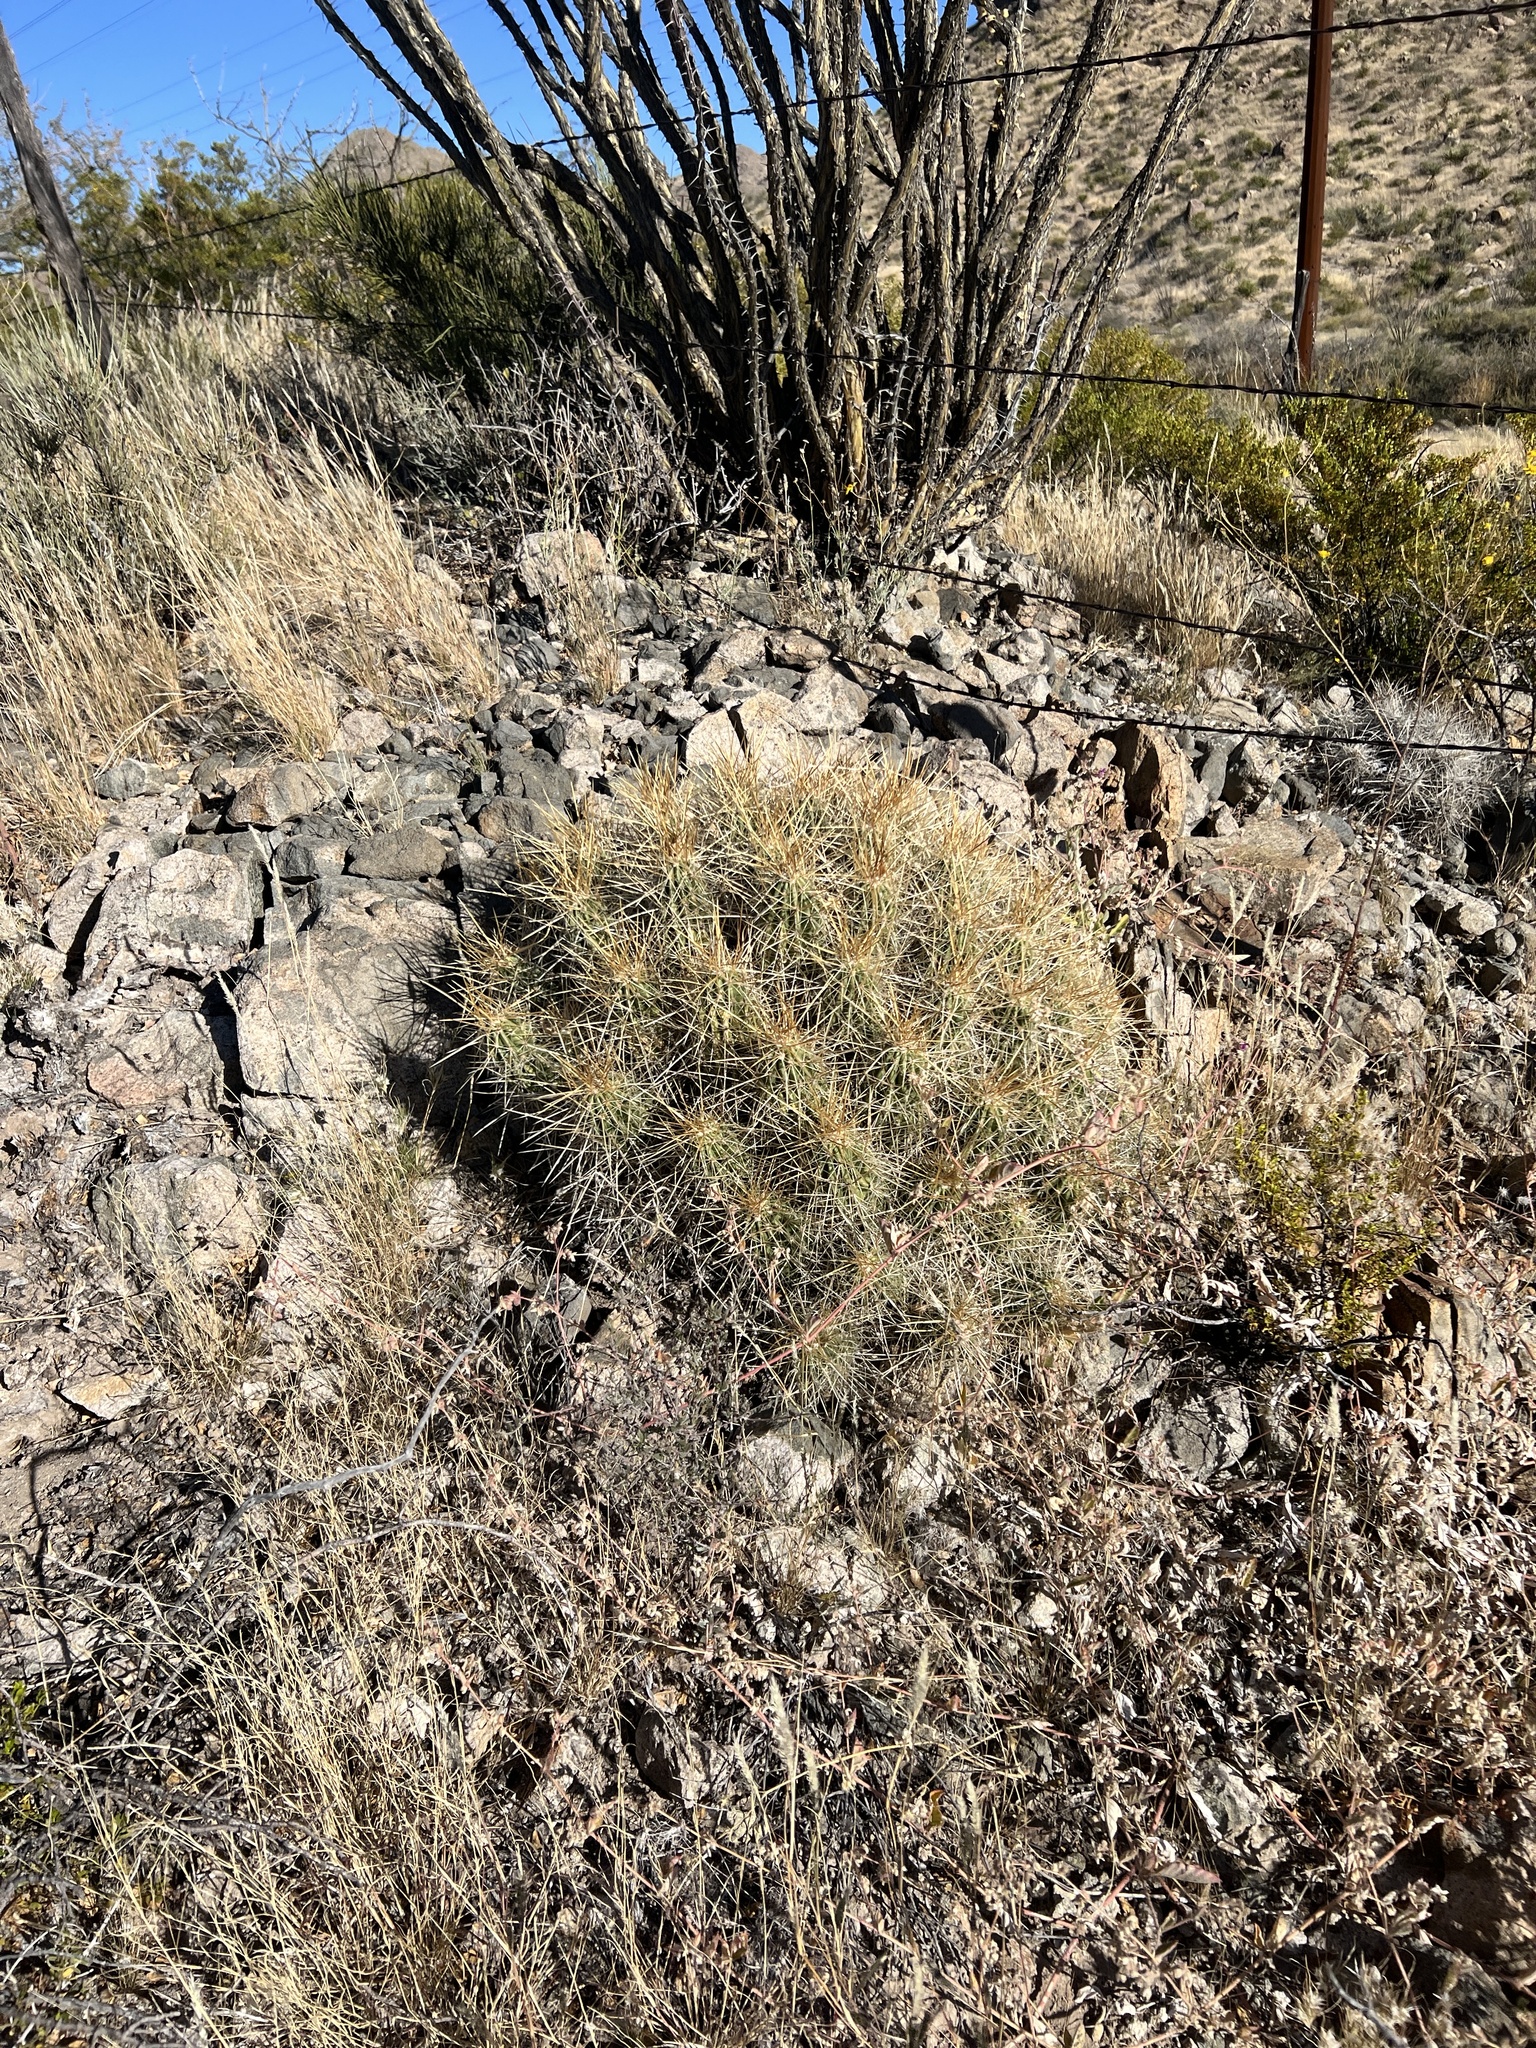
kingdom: Plantae
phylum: Tracheophyta
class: Magnoliopsida
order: Caryophyllales
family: Cactaceae
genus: Echinocereus
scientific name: Echinocereus stramineus
